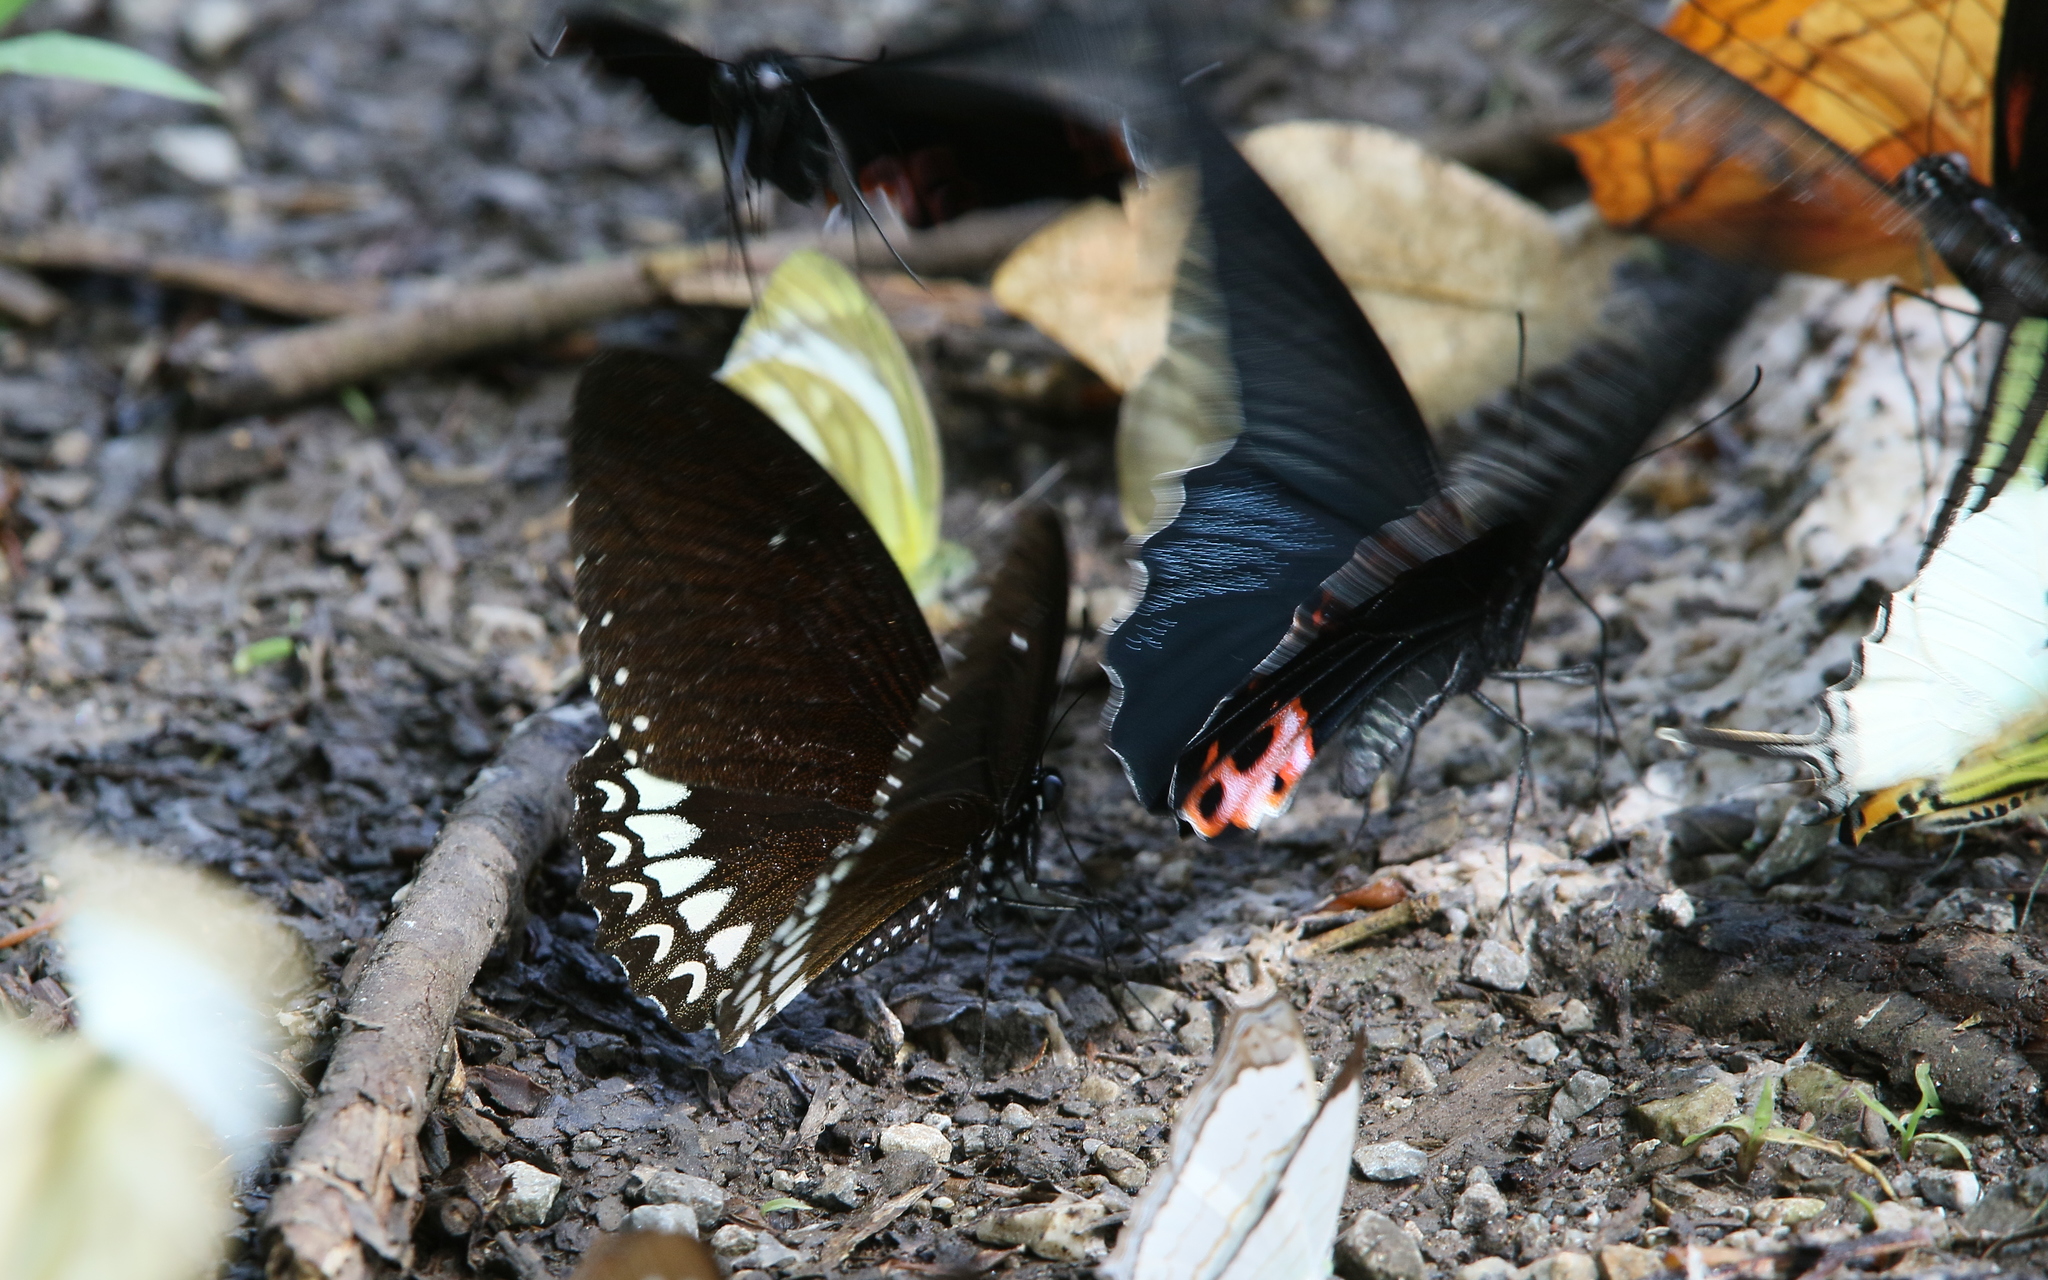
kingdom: Animalia
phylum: Arthropoda
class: Insecta
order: Lepidoptera
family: Papilionidae
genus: Papilio
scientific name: Papilio castor
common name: Common raven
